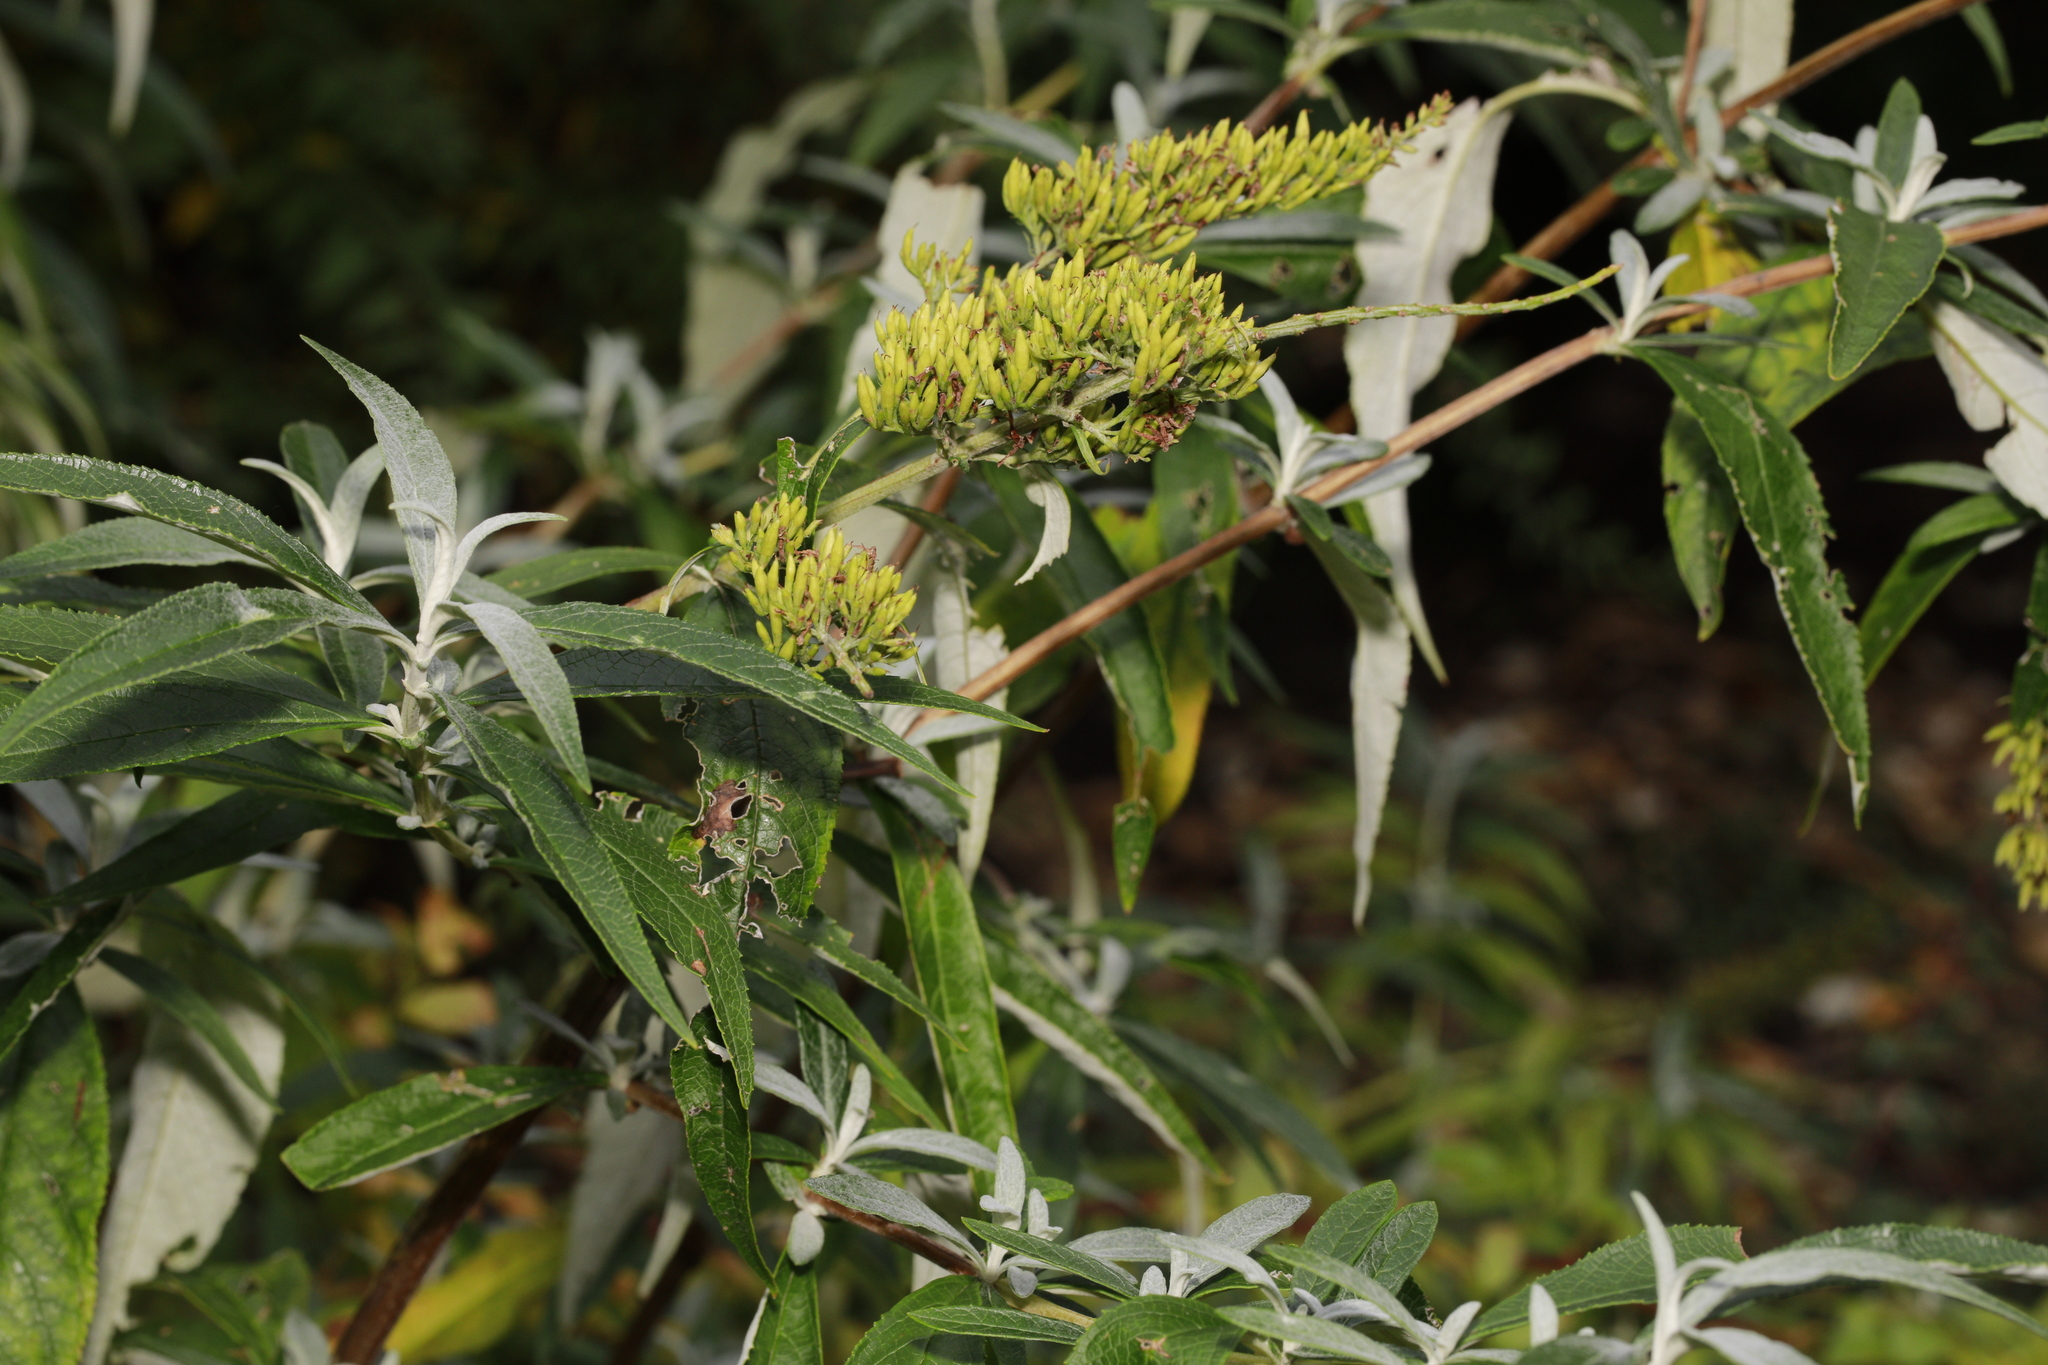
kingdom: Plantae
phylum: Tracheophyta
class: Magnoliopsida
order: Lamiales
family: Scrophulariaceae
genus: Buddleja
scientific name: Buddleja davidii
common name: Butterfly-bush
